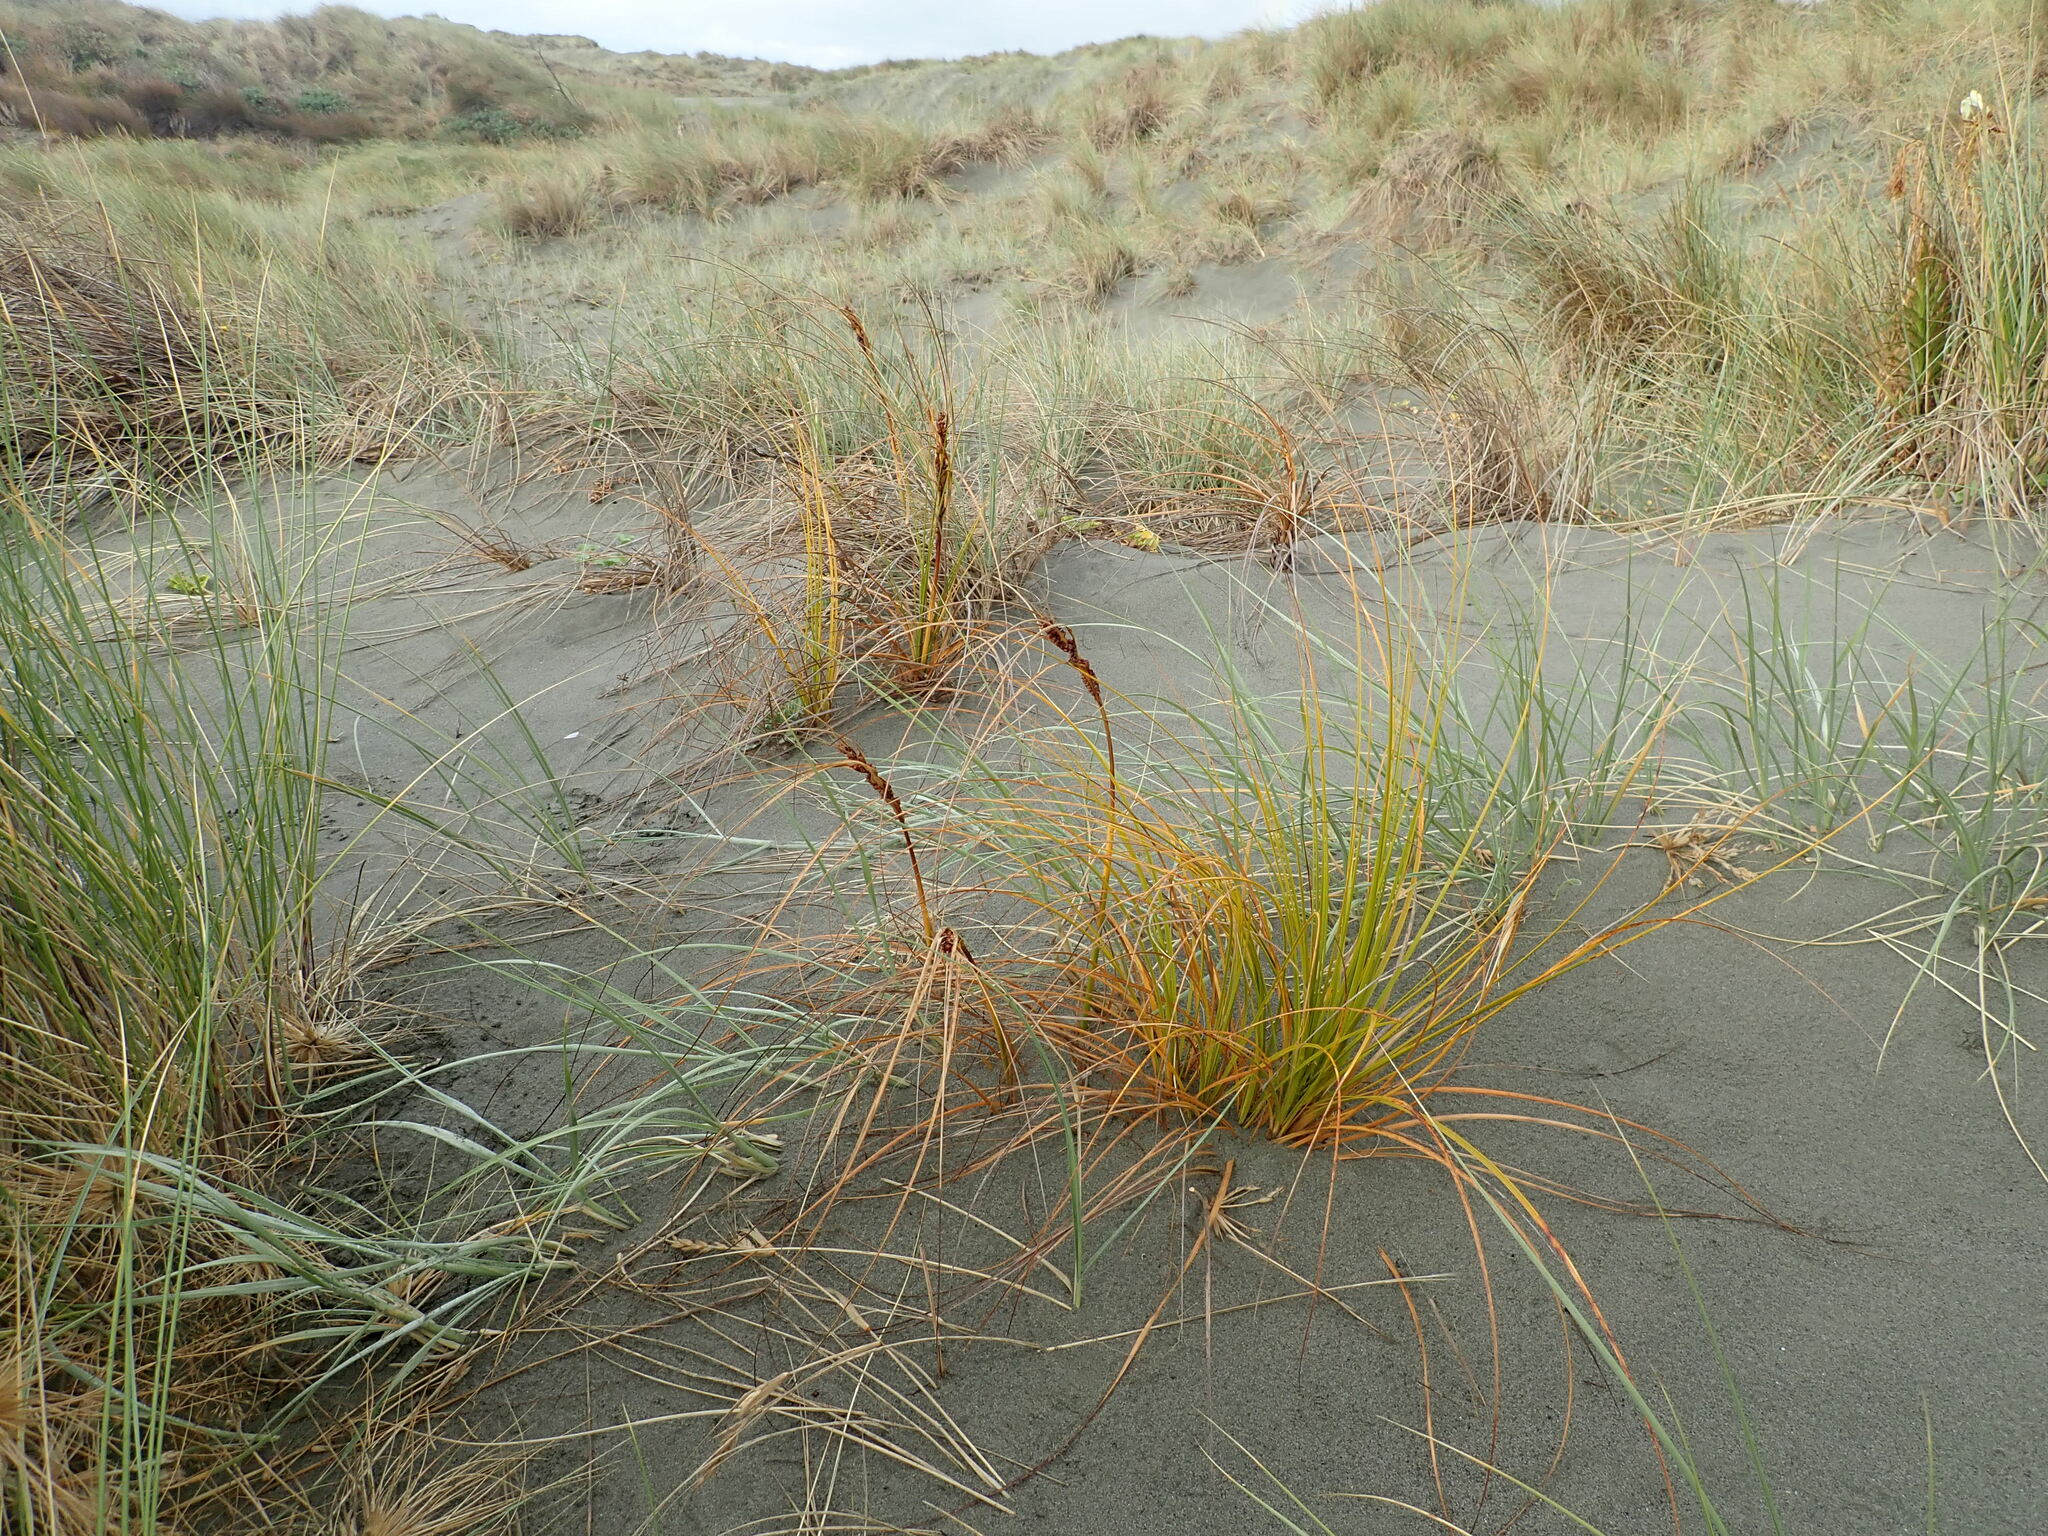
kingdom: Plantae
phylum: Tracheophyta
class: Liliopsida
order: Poales
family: Cyperaceae
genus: Ficinia
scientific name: Ficinia spiralis
